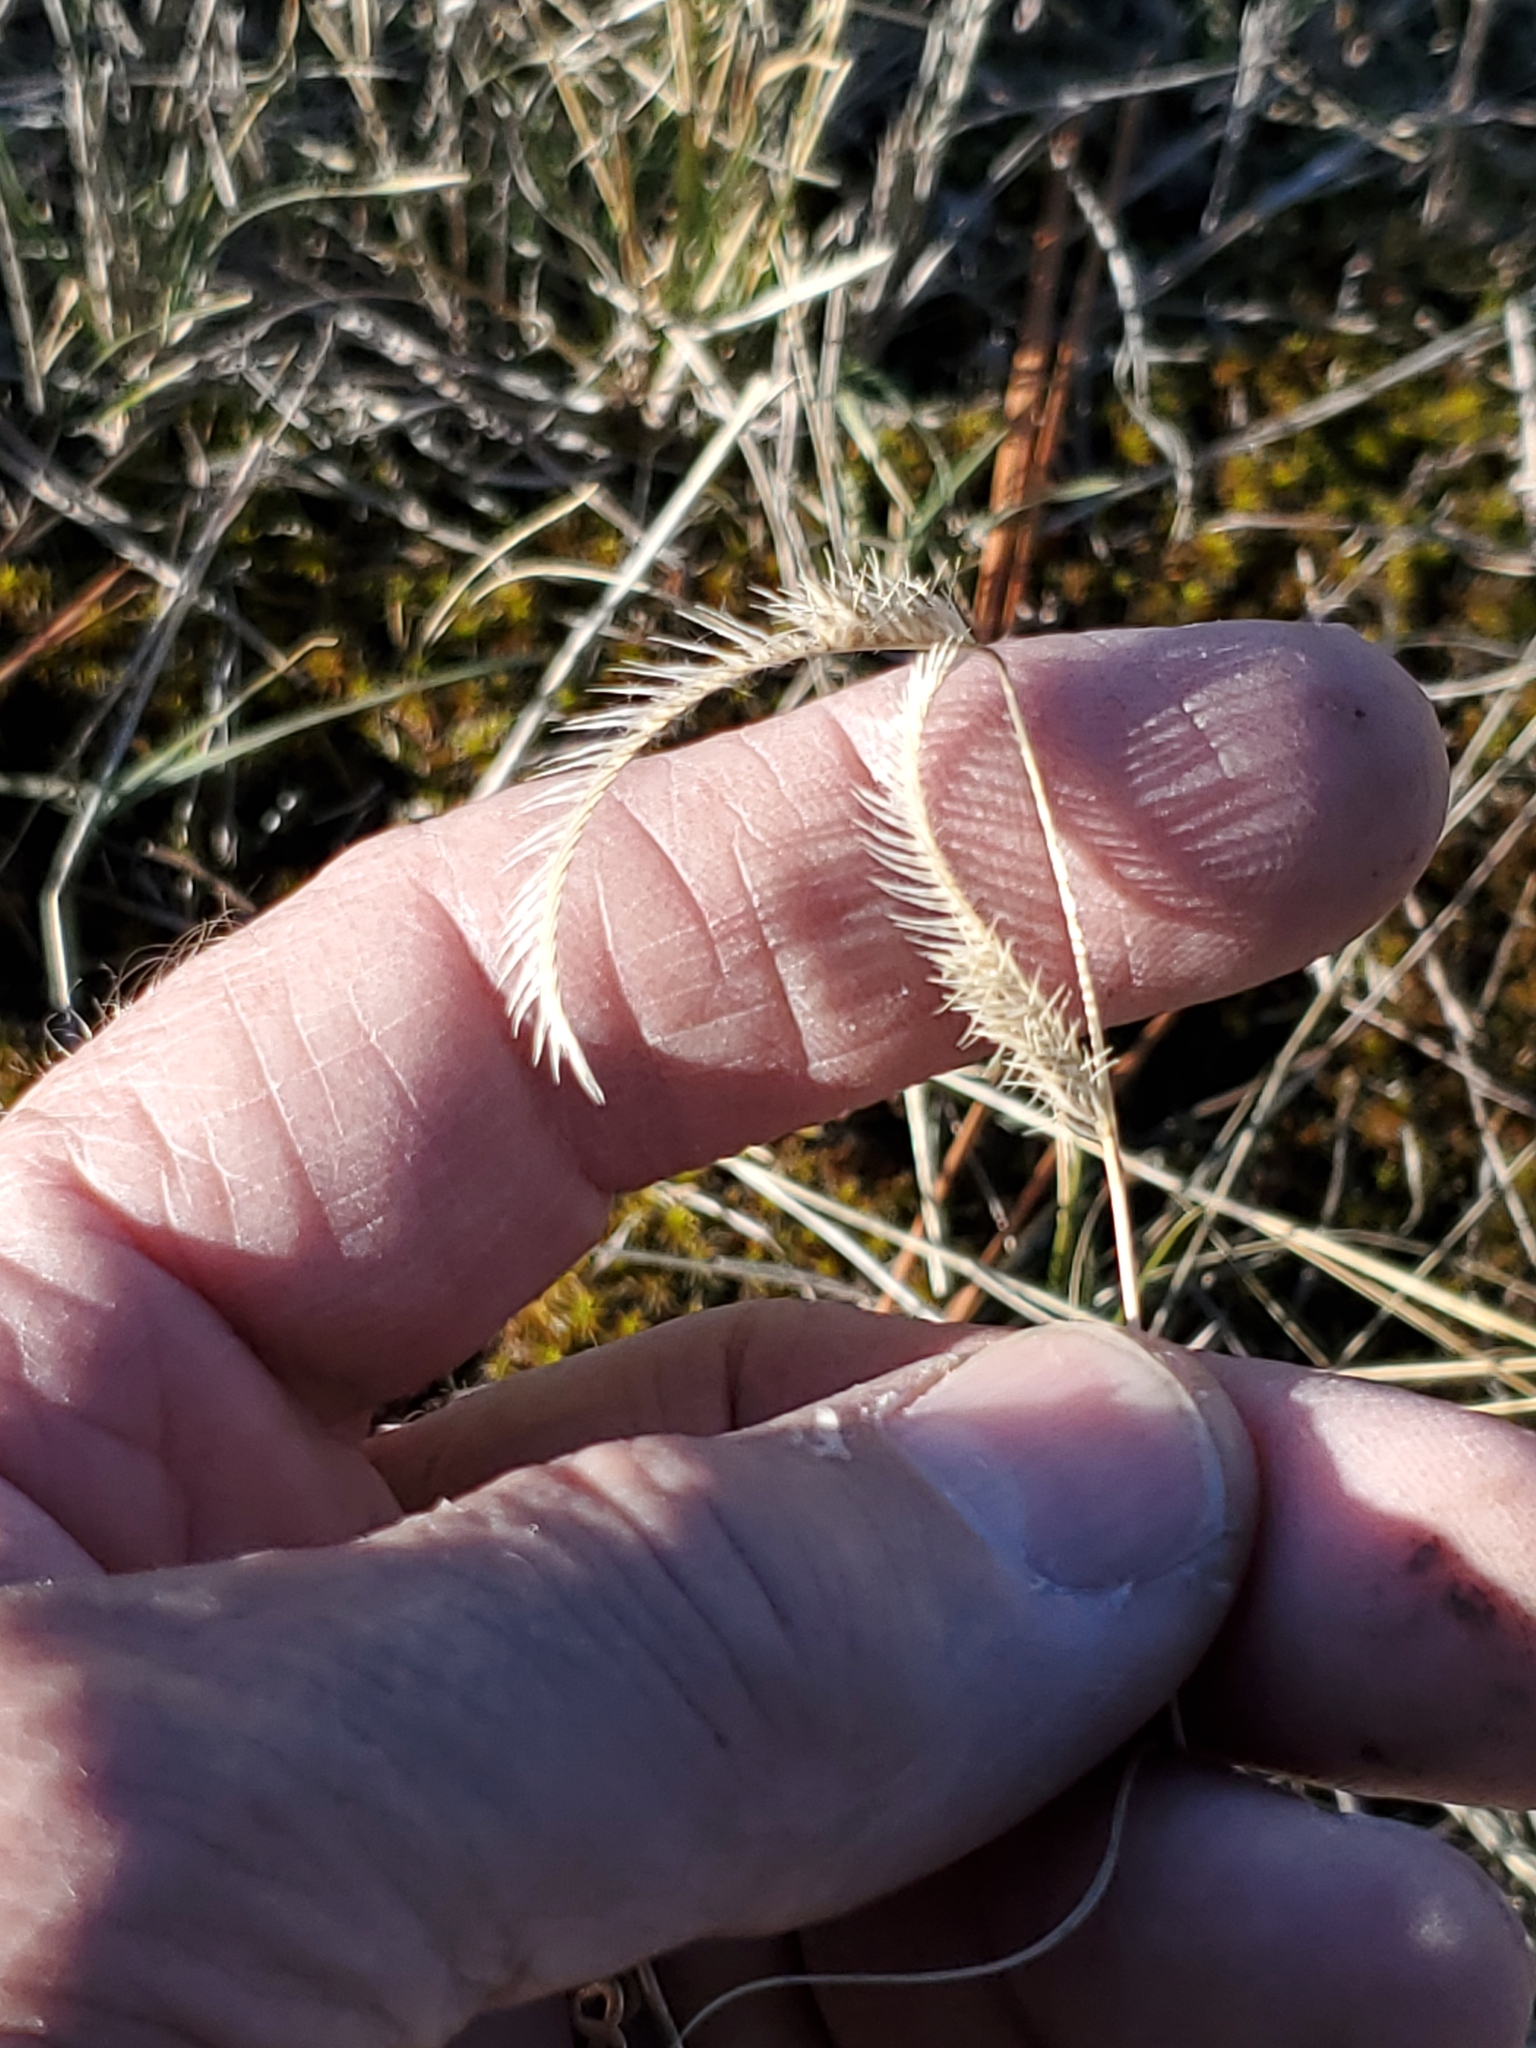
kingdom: Plantae
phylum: Tracheophyta
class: Liliopsida
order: Poales
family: Poaceae
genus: Bouteloua
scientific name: Bouteloua gracilis
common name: Blue grama
